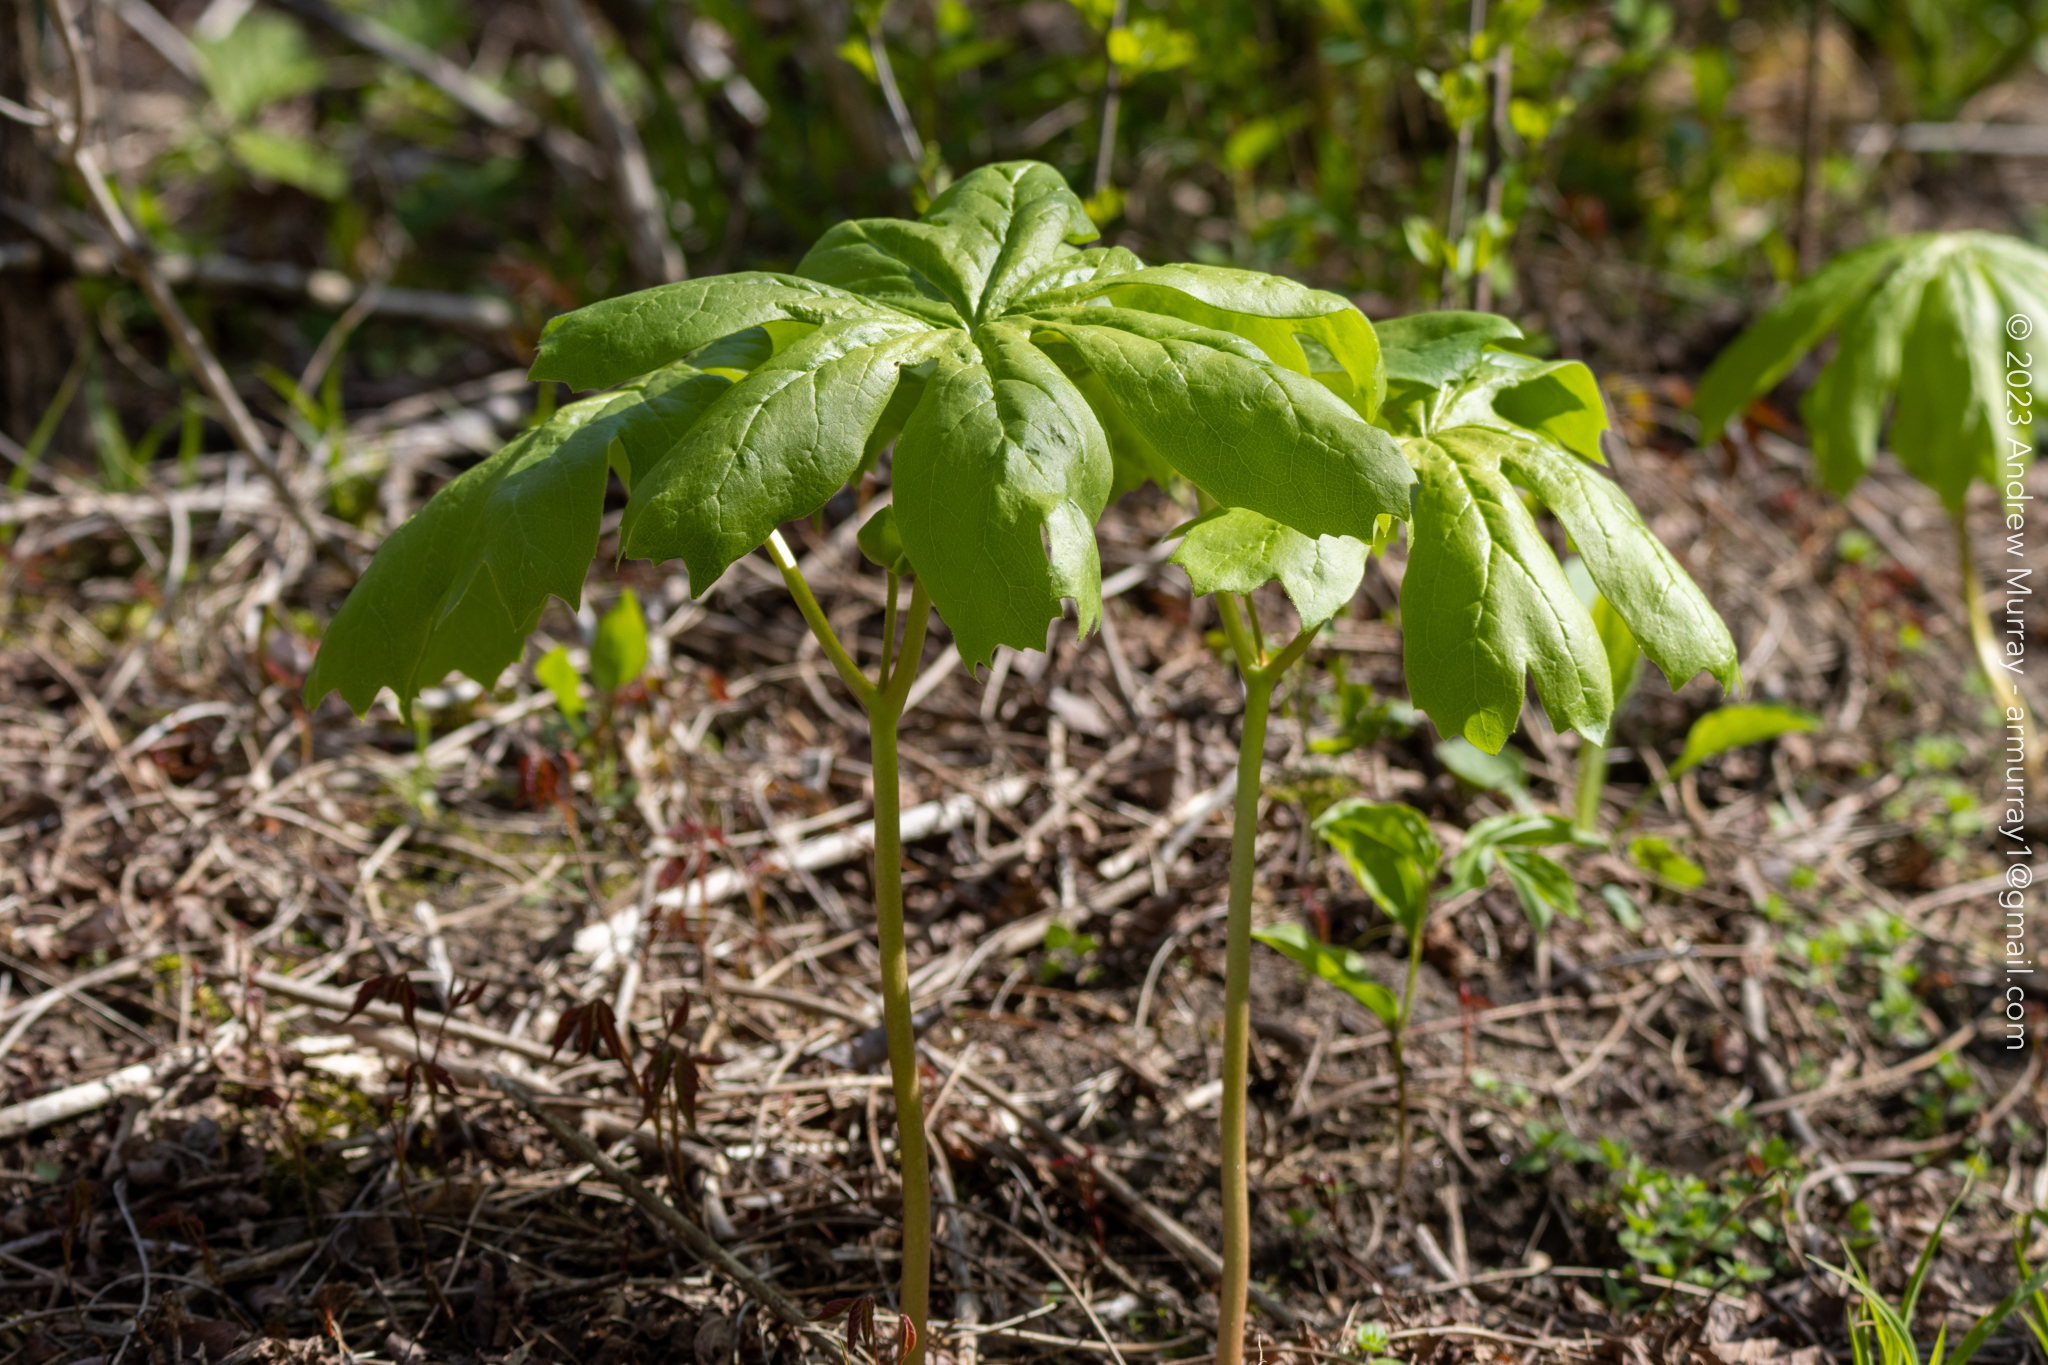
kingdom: Plantae
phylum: Tracheophyta
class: Magnoliopsida
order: Ranunculales
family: Berberidaceae
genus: Podophyllum
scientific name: Podophyllum peltatum
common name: Wild mandrake
